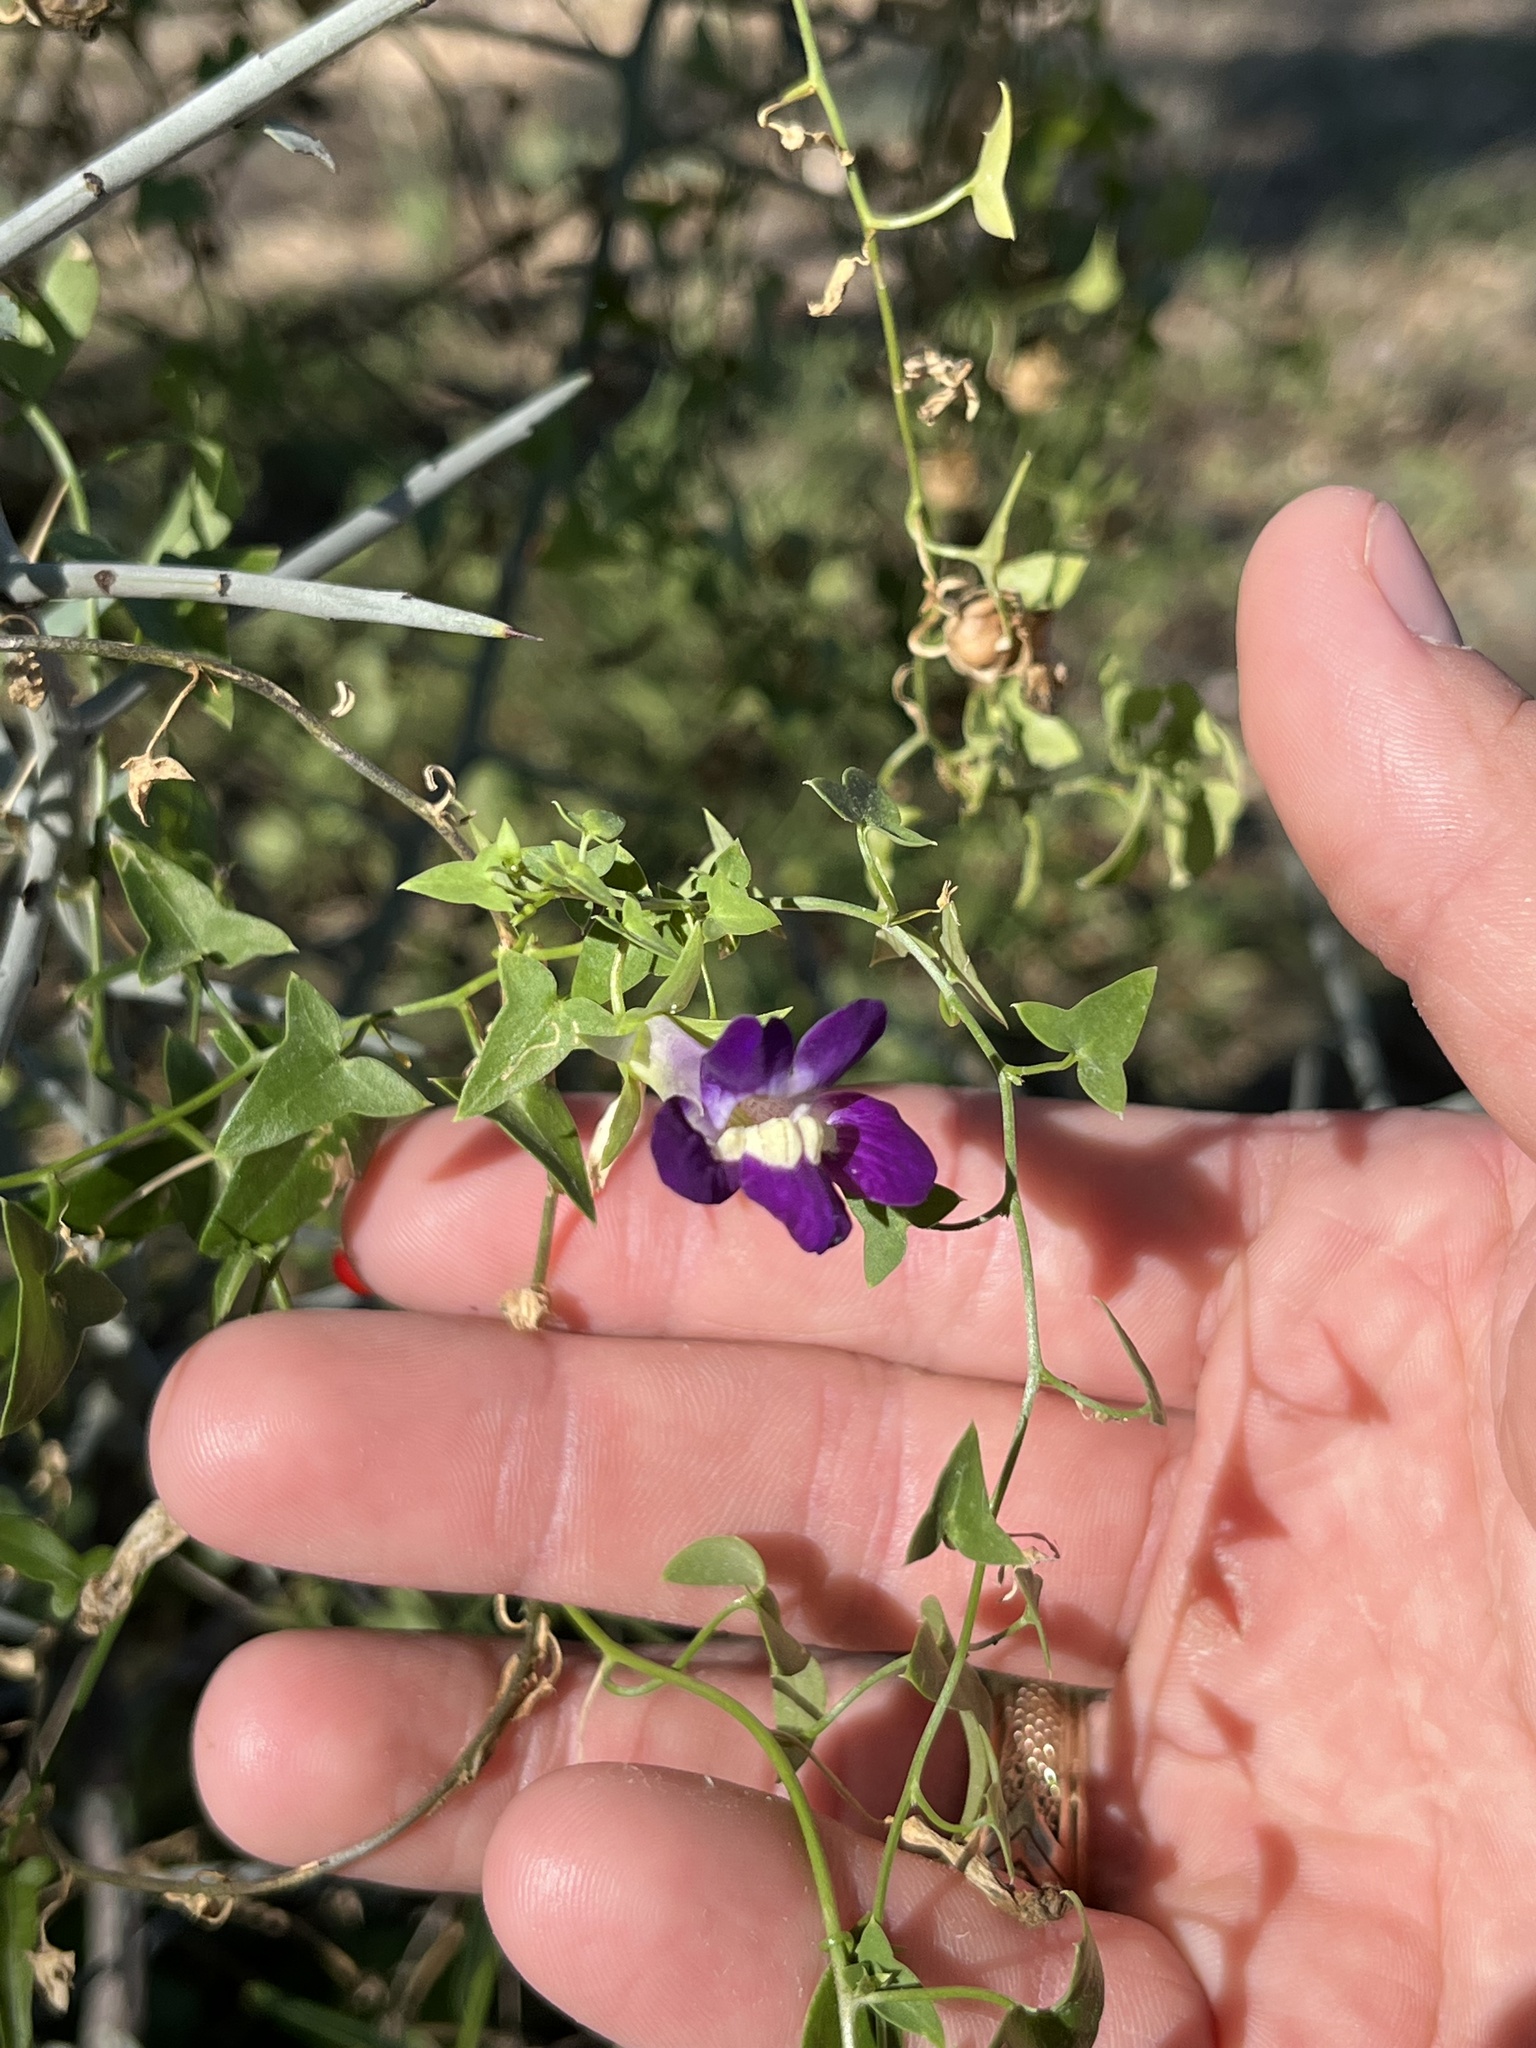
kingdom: Plantae
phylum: Tracheophyta
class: Magnoliopsida
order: Lamiales
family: Plantaginaceae
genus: Maurandella
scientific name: Maurandella antirrhiniflora
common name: Violet twining-snapdragon
